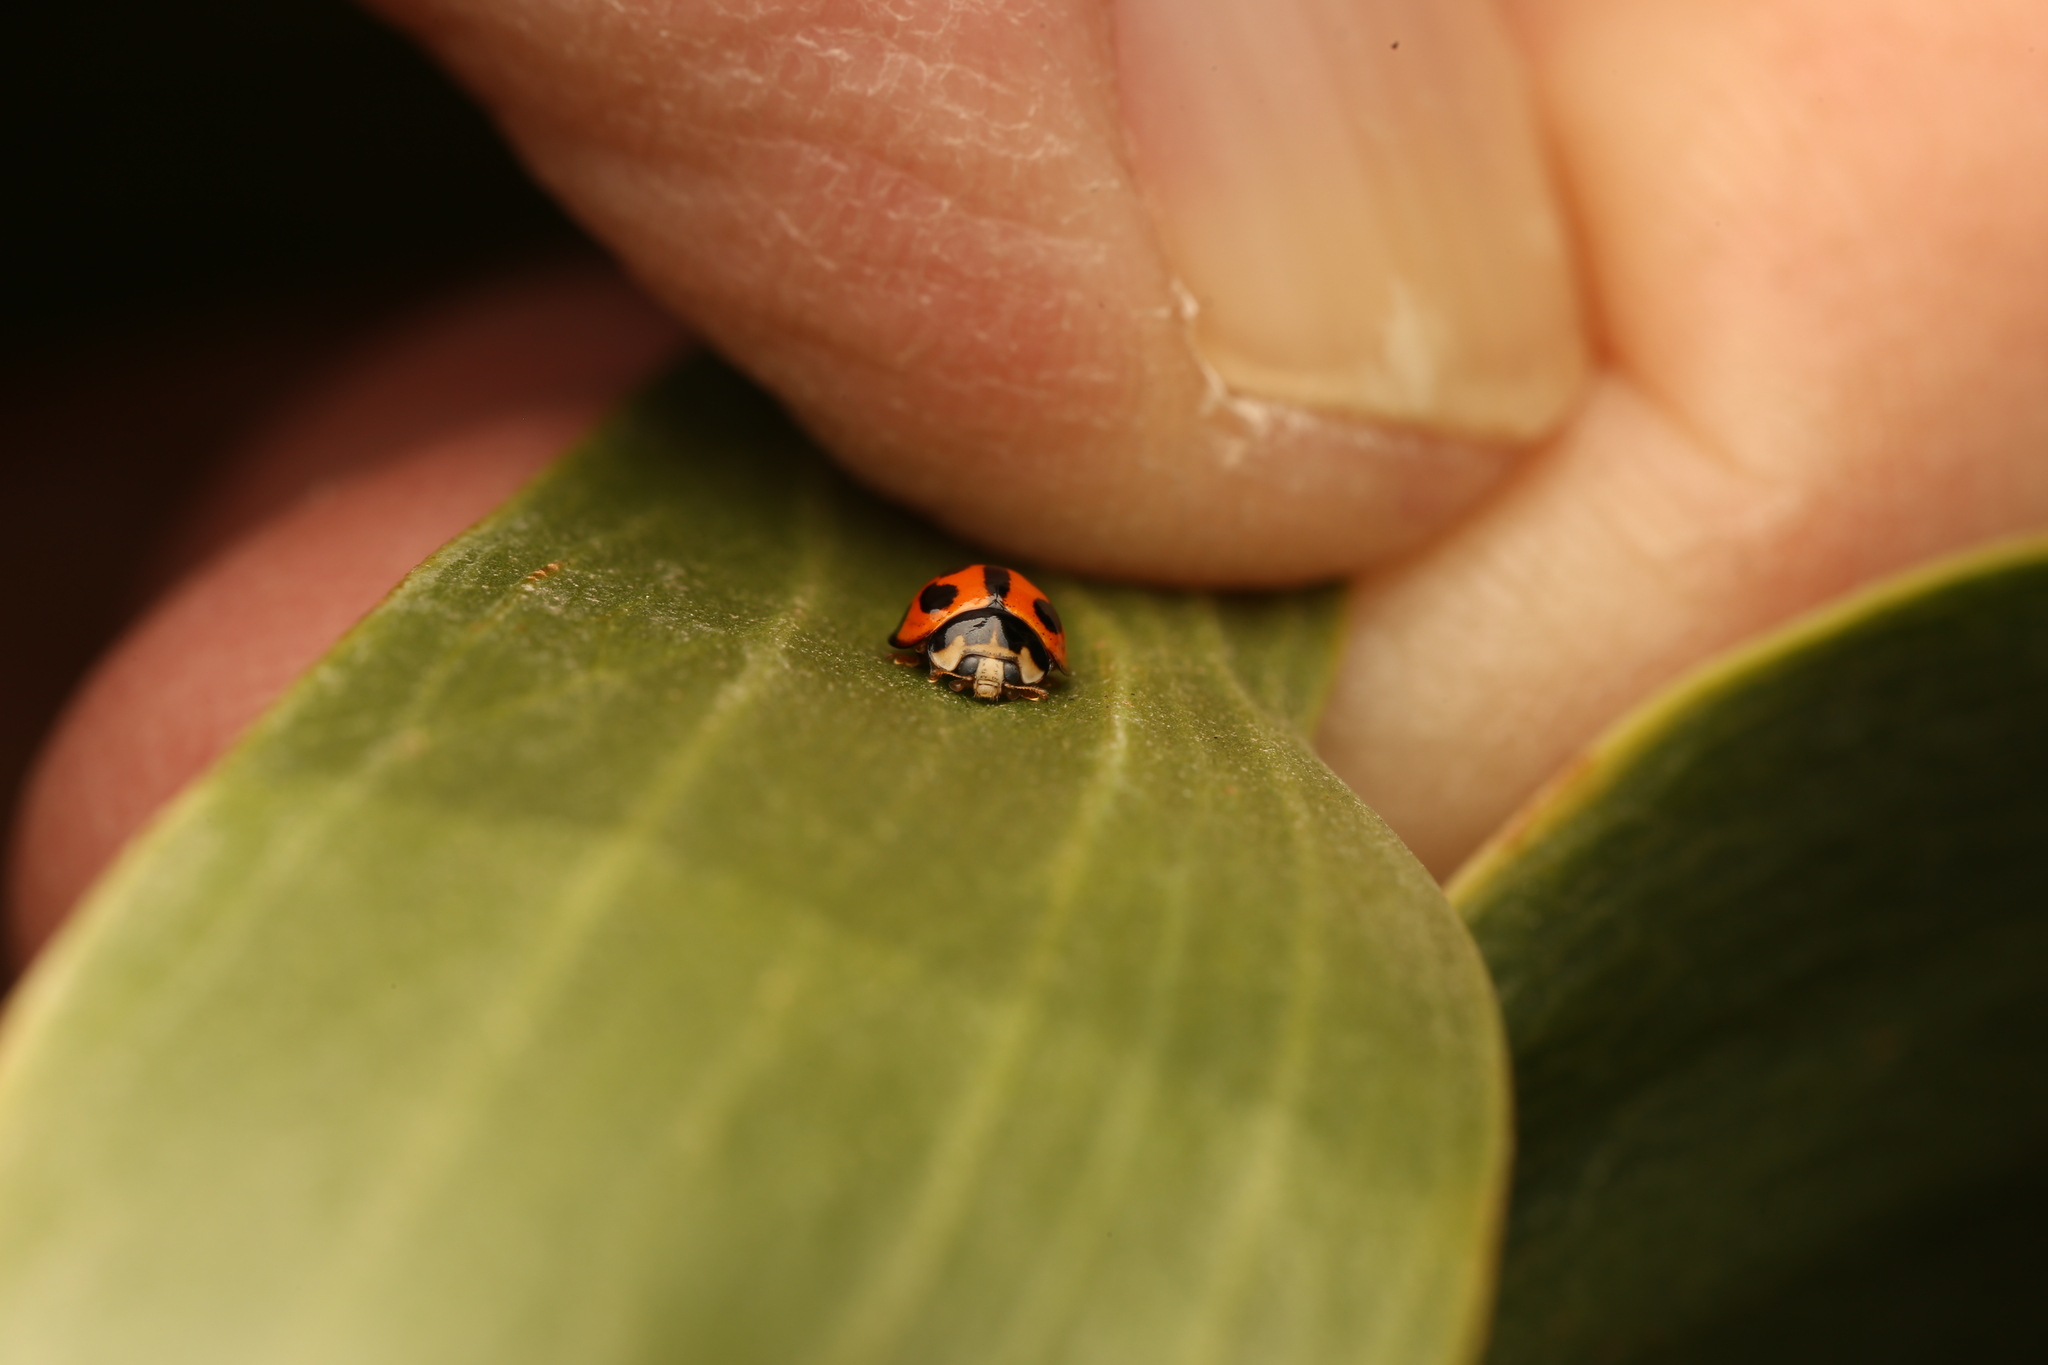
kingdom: Animalia
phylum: Arthropoda
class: Insecta
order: Coleoptera
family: Coccinellidae
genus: Coelophora
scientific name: Coelophora inaequalis
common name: Common australian lady beetle
